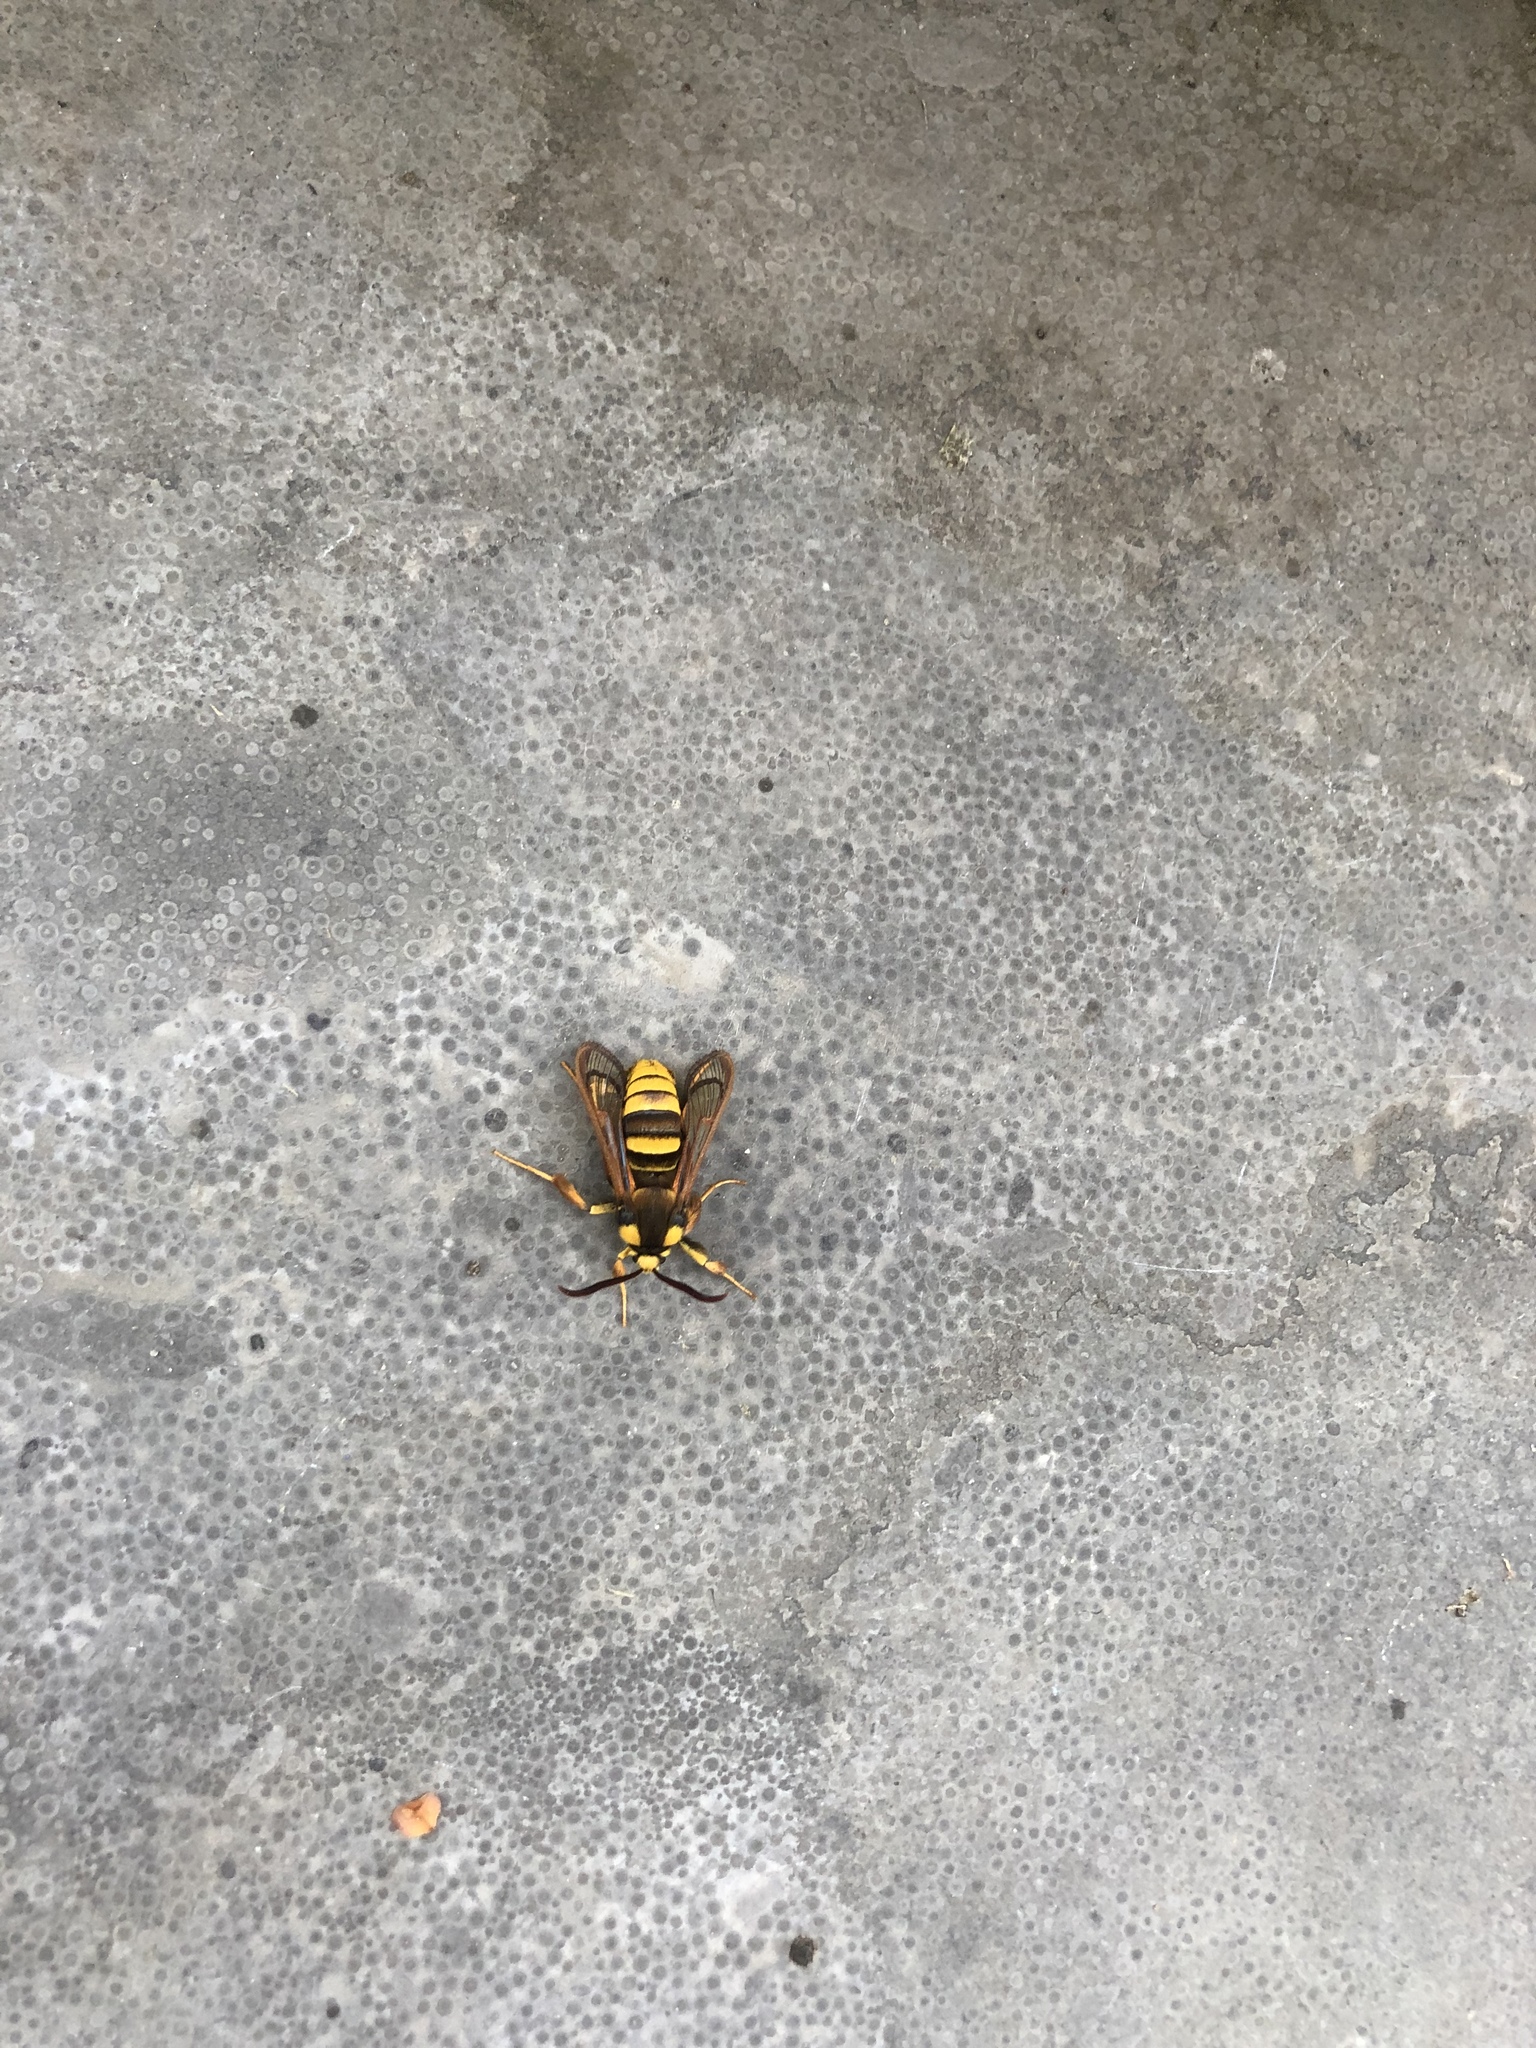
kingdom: Animalia
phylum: Arthropoda
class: Insecta
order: Lepidoptera
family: Sesiidae
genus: Sesia
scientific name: Sesia apiformis
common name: Hornet moth
